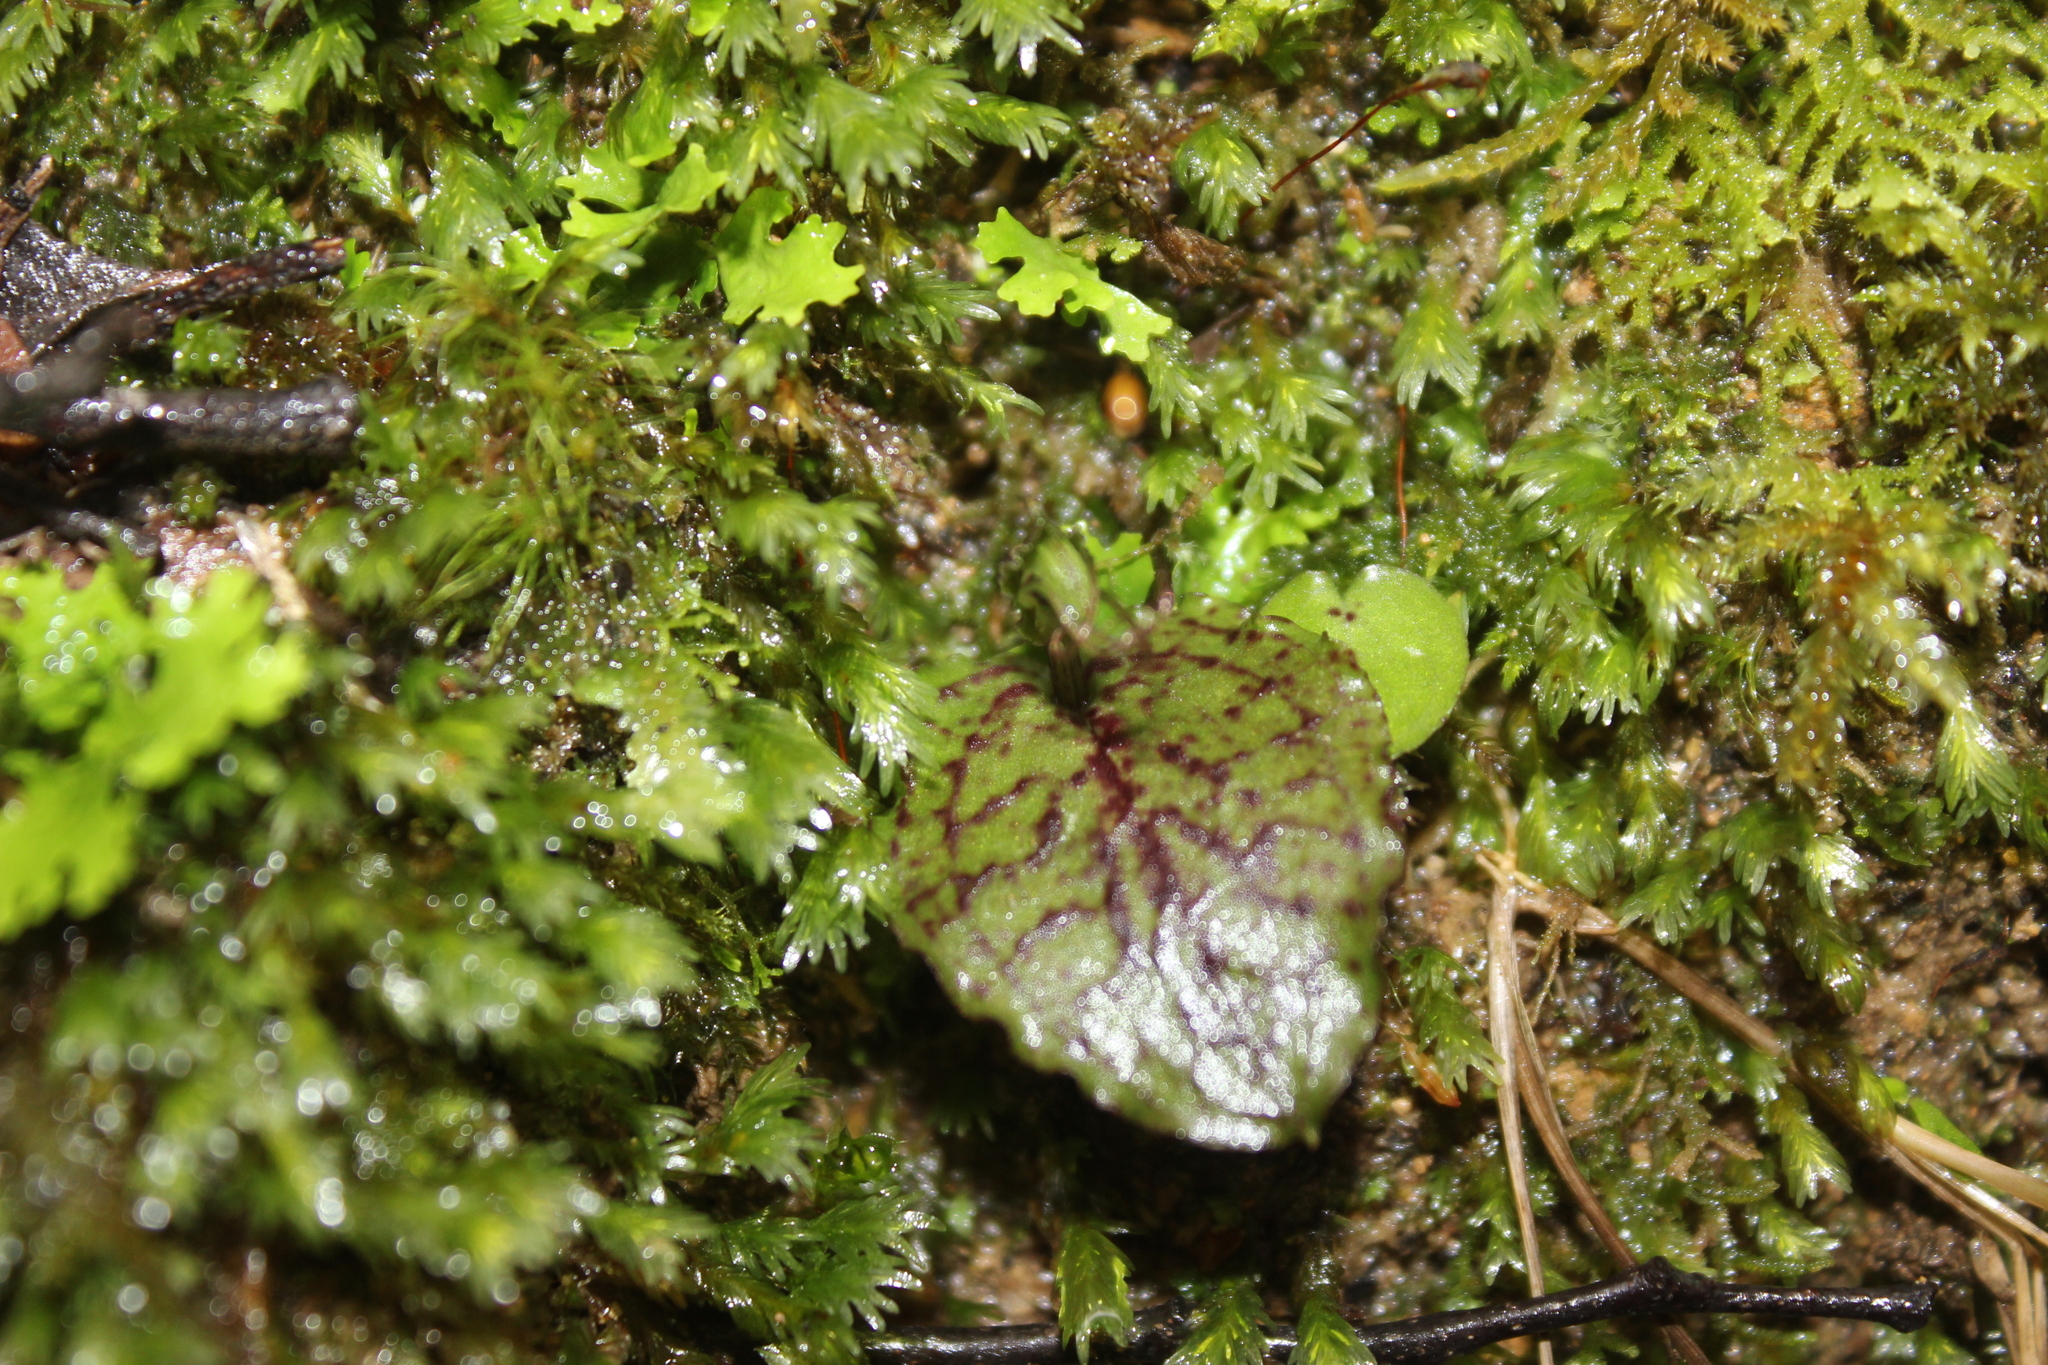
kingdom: Plantae
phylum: Tracheophyta
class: Liliopsida
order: Asparagales
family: Orchidaceae
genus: Corybas
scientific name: Corybas oblongus
